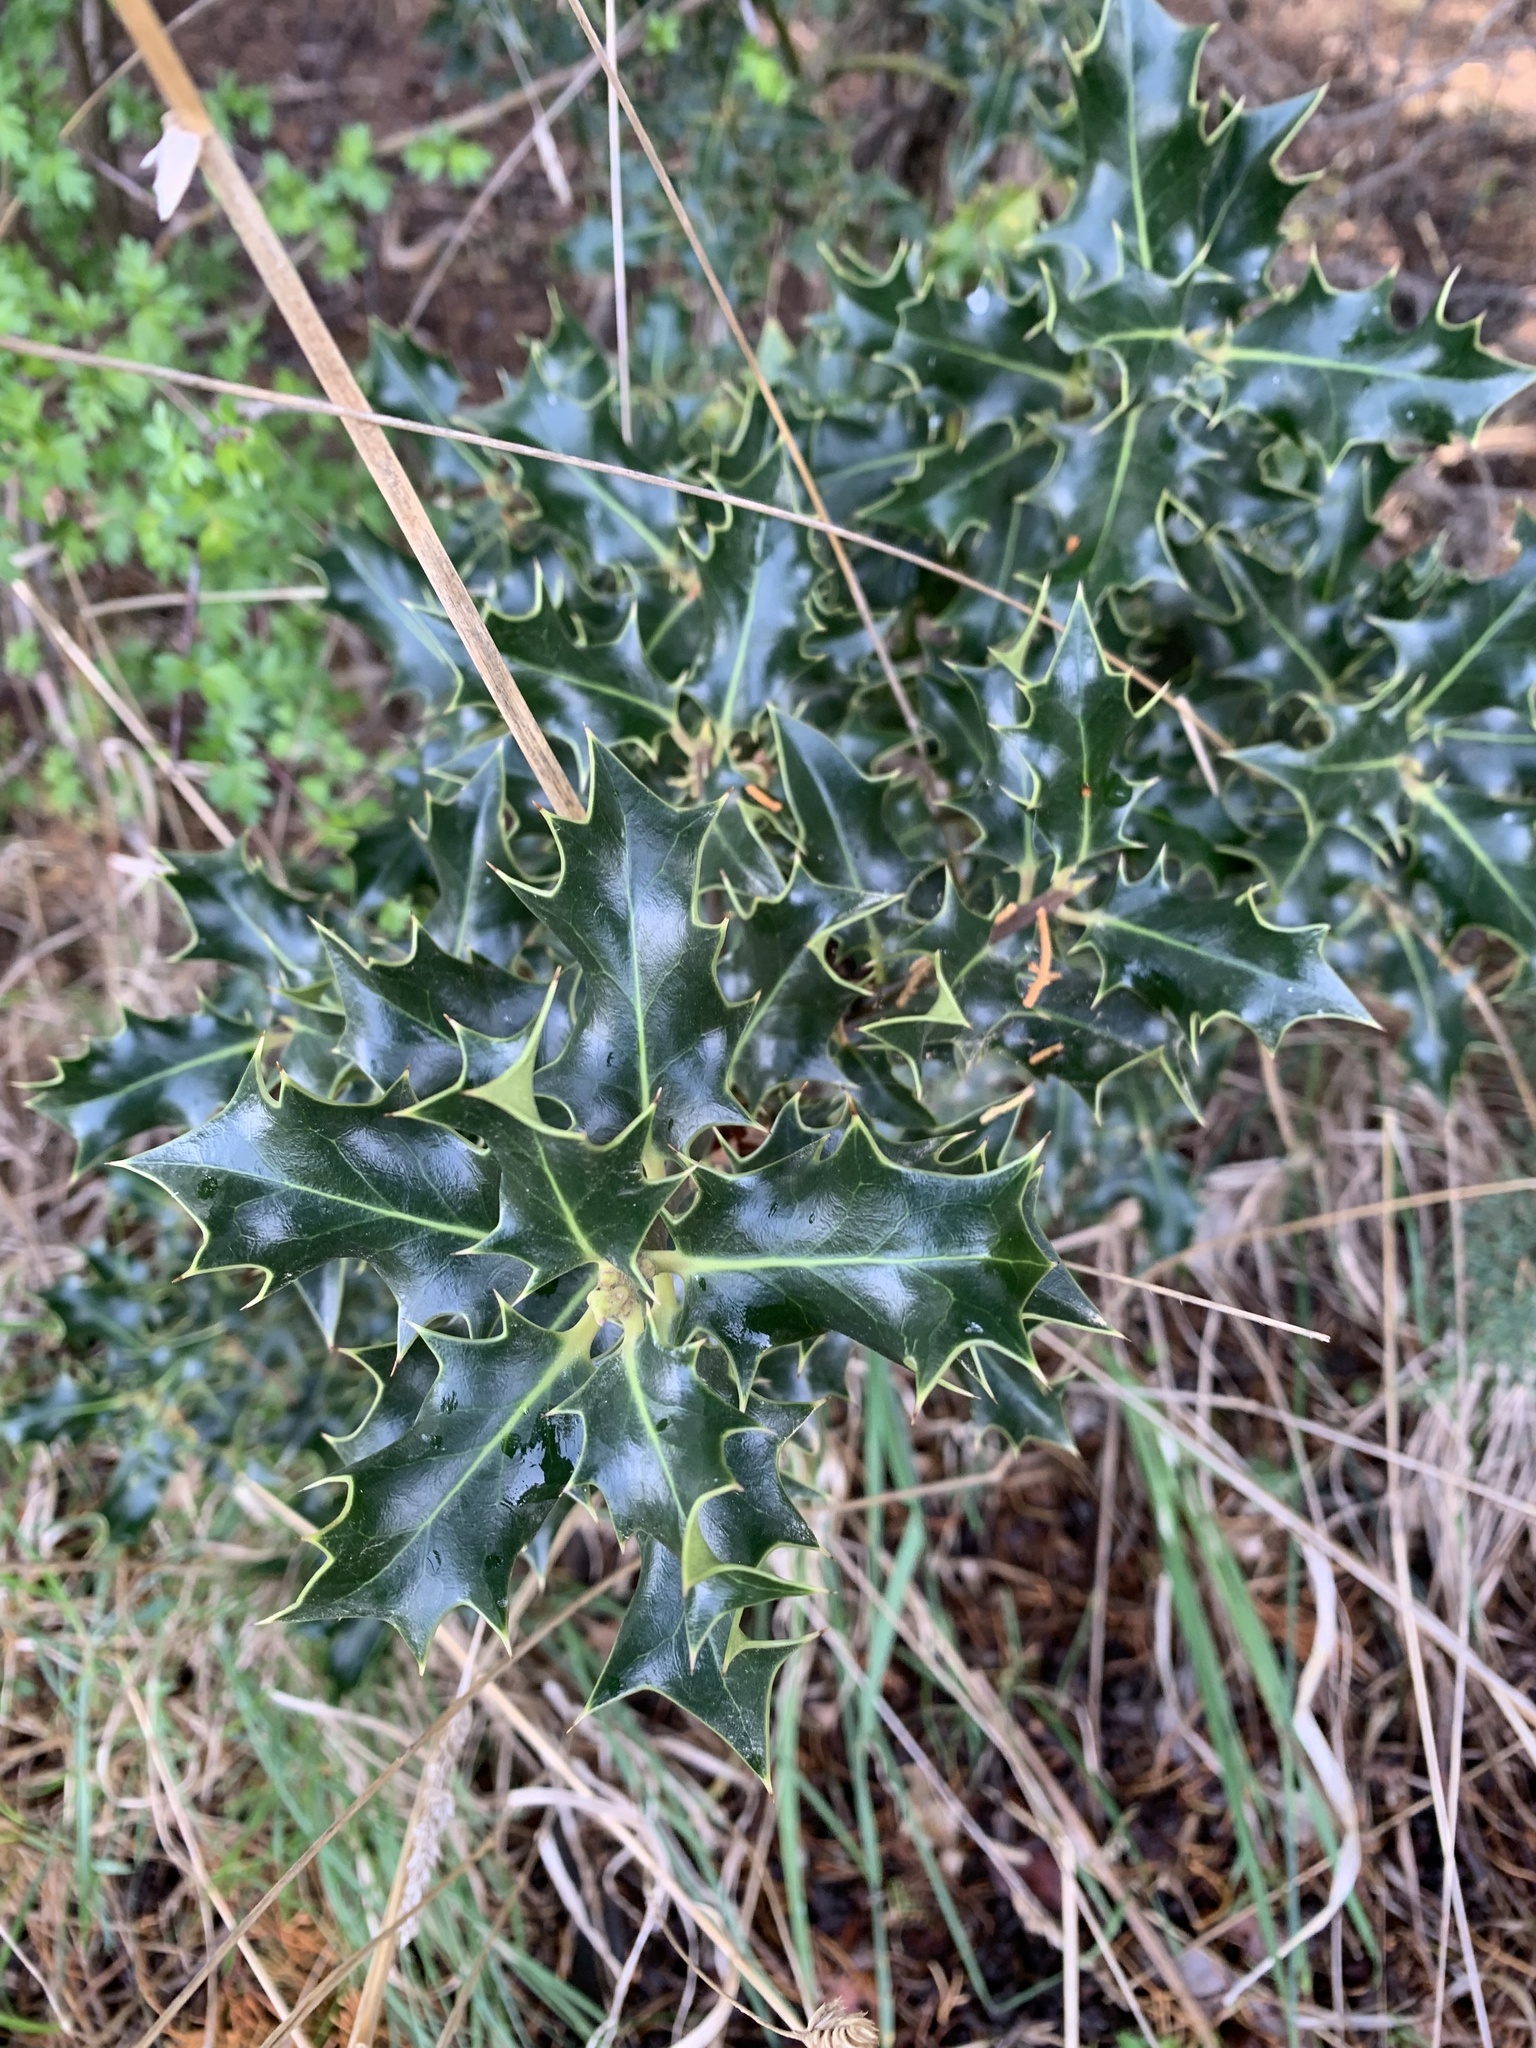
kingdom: Plantae
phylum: Tracheophyta
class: Magnoliopsida
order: Aquifoliales
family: Aquifoliaceae
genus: Ilex
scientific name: Ilex aquifolium
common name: English holly
